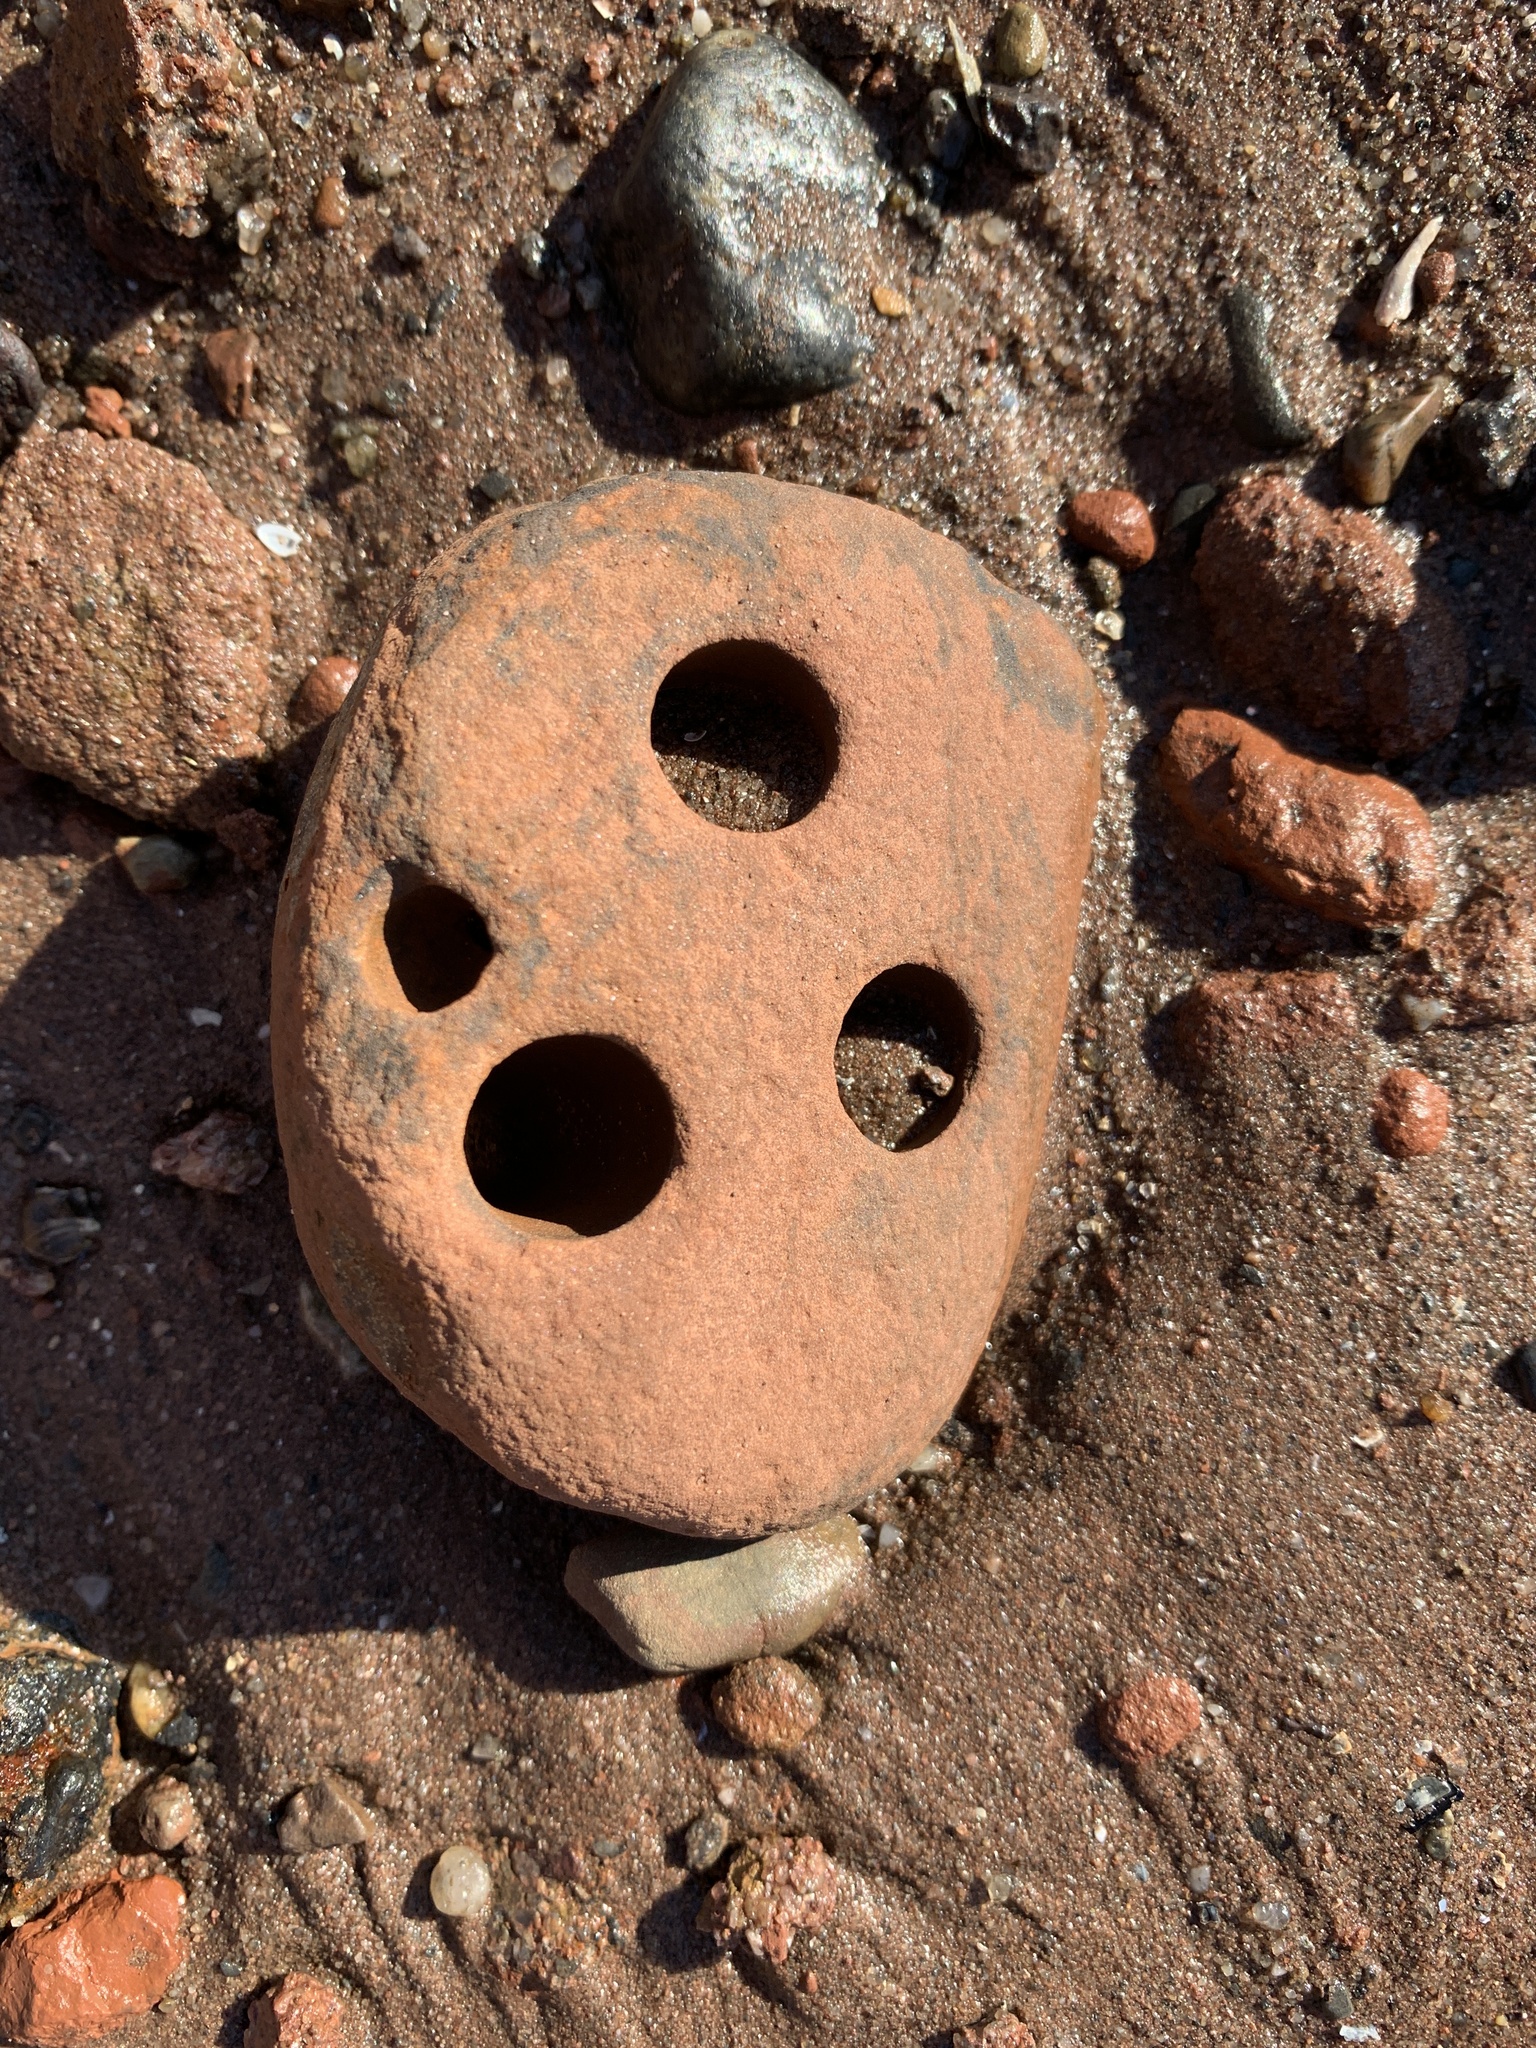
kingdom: Animalia
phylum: Mollusca
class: Bivalvia
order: Venerida
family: Veneridae
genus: Petricolaria
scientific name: Petricolaria pholadiformis
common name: American piddock
